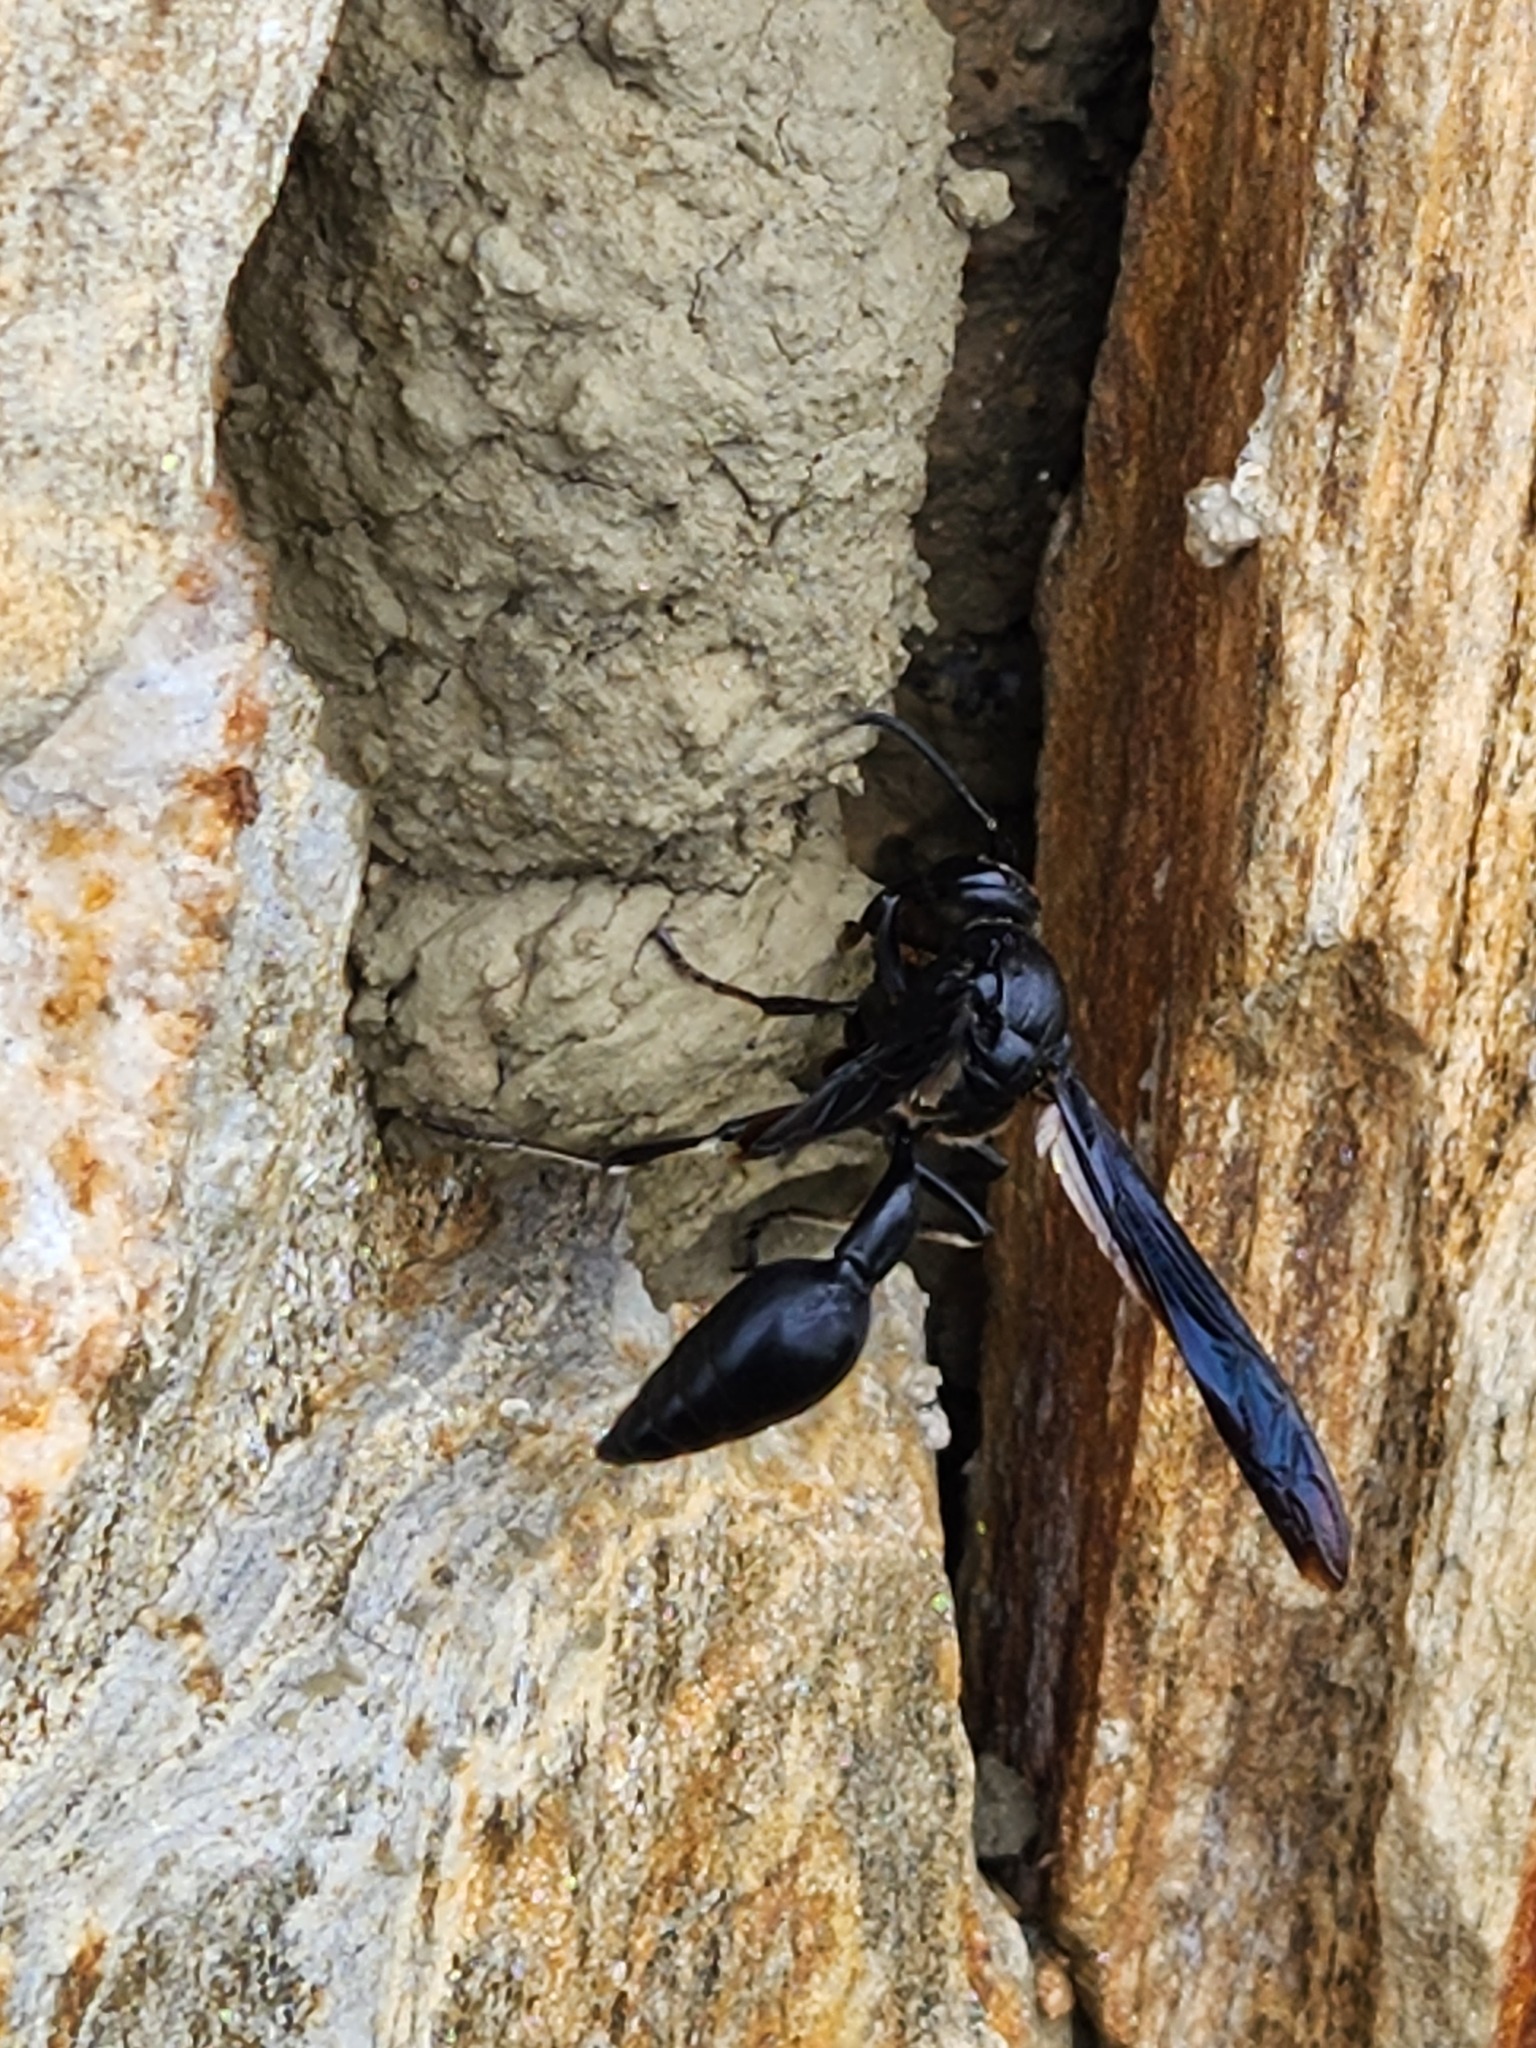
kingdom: Animalia
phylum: Arthropoda
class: Insecta
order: Hymenoptera
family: Eumenidae
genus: Brachymenes
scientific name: Brachymenes wagnerianus
